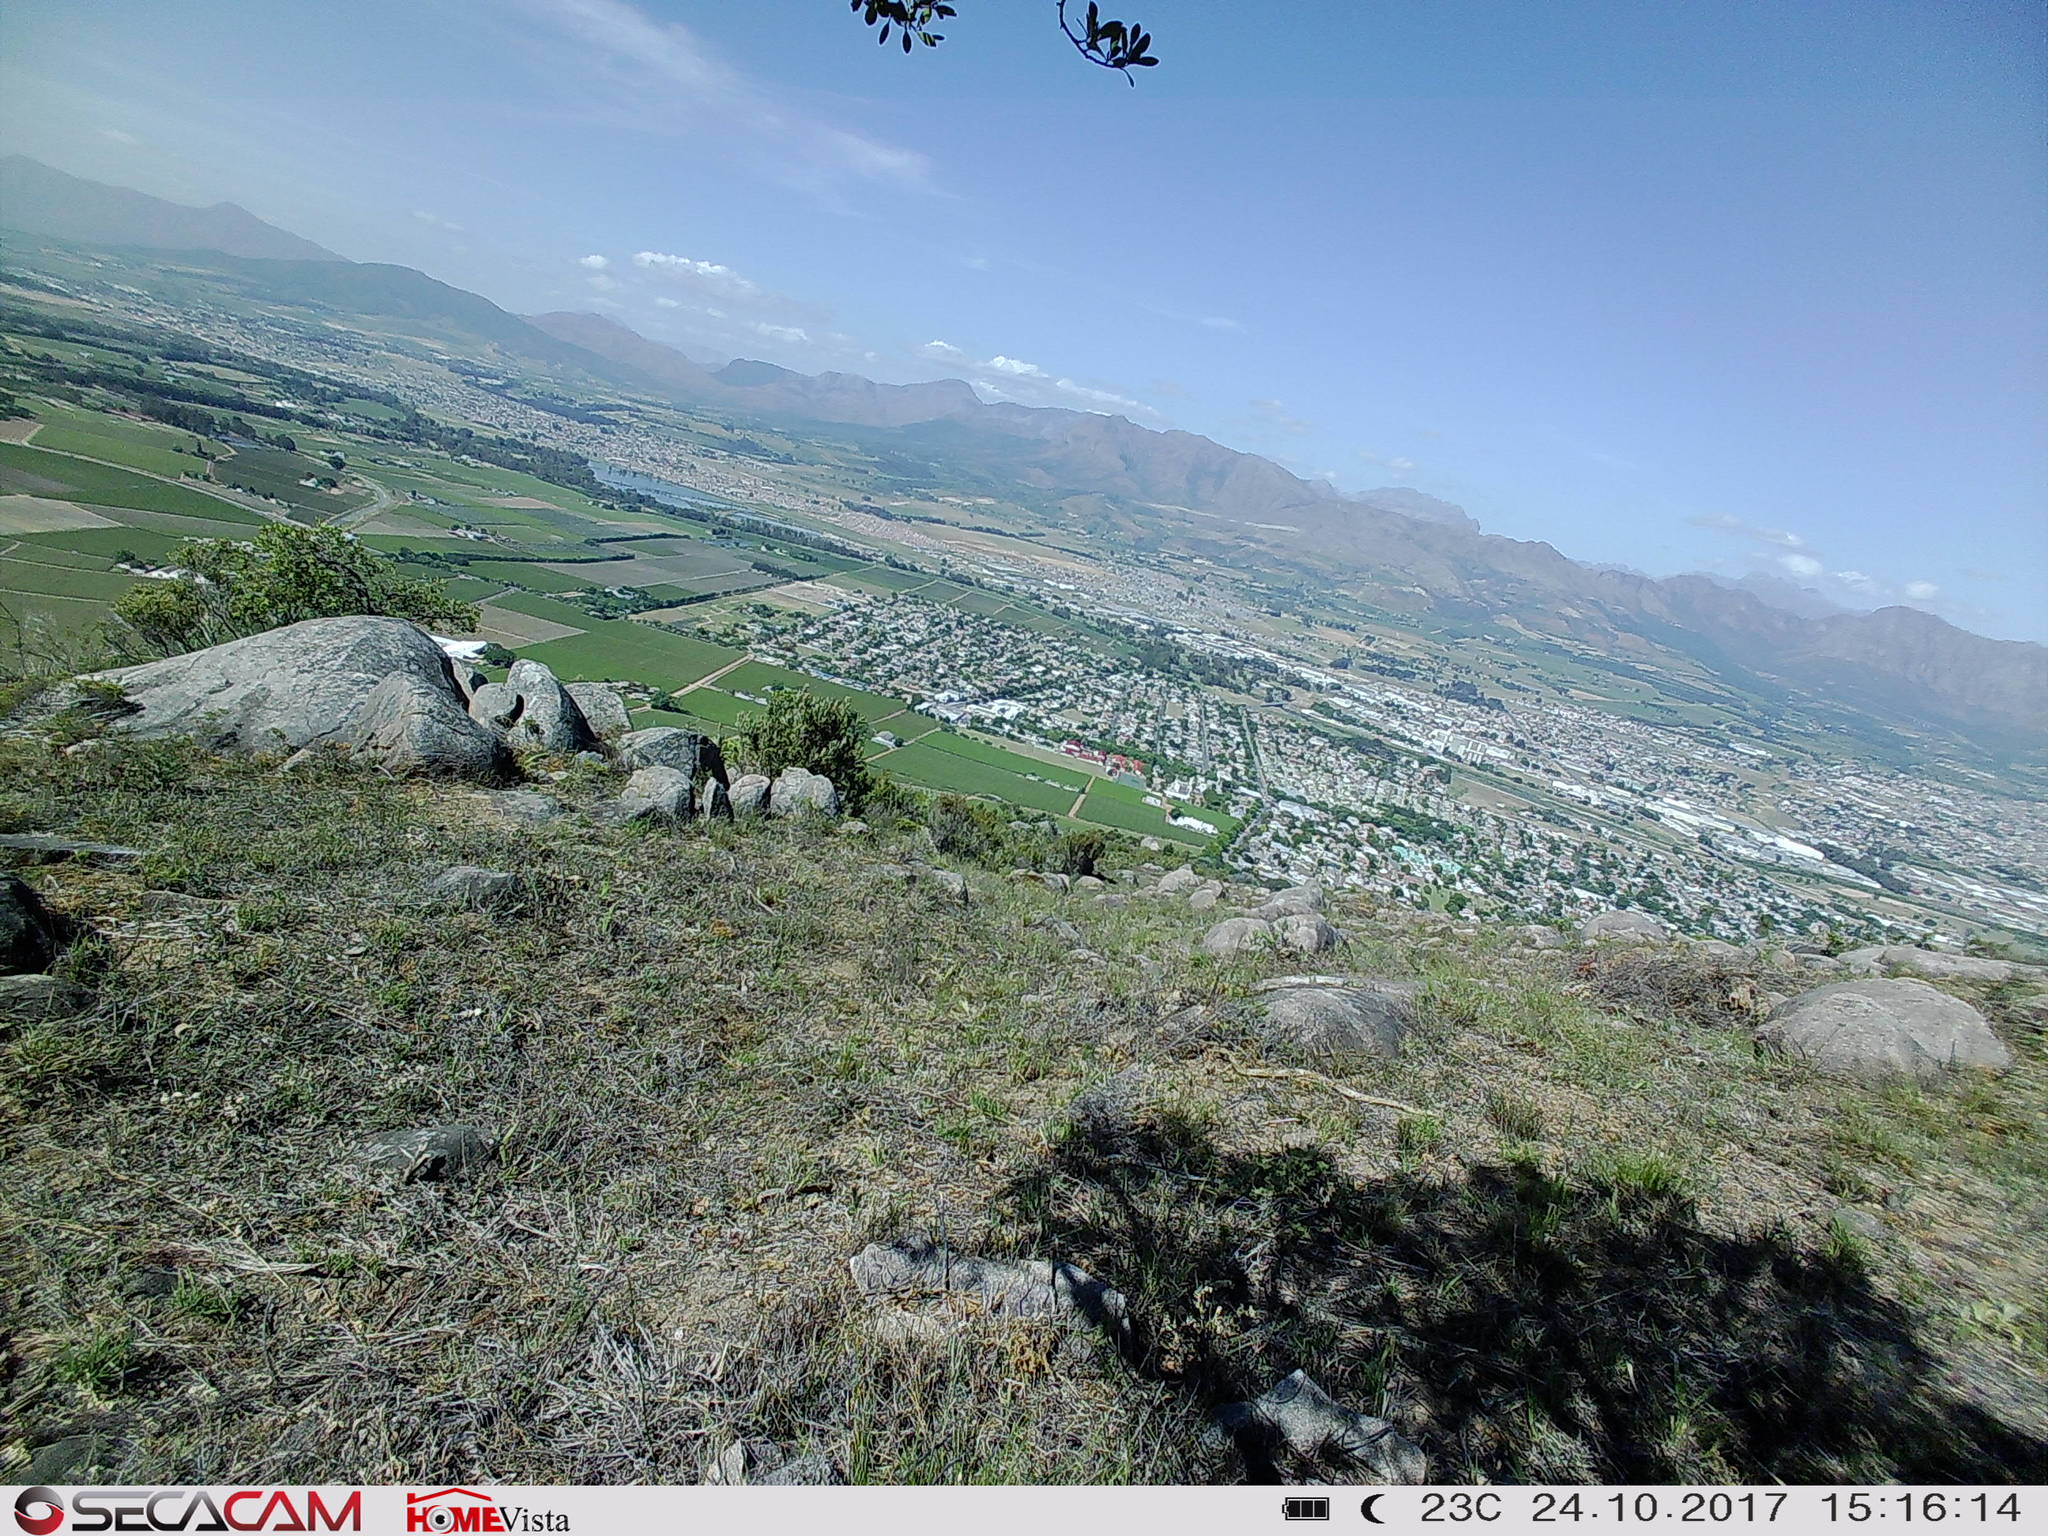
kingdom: Animalia
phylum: Chordata
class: Squamata
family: Elapidae
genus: Naja
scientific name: Naja nivea
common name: Cape cobra
